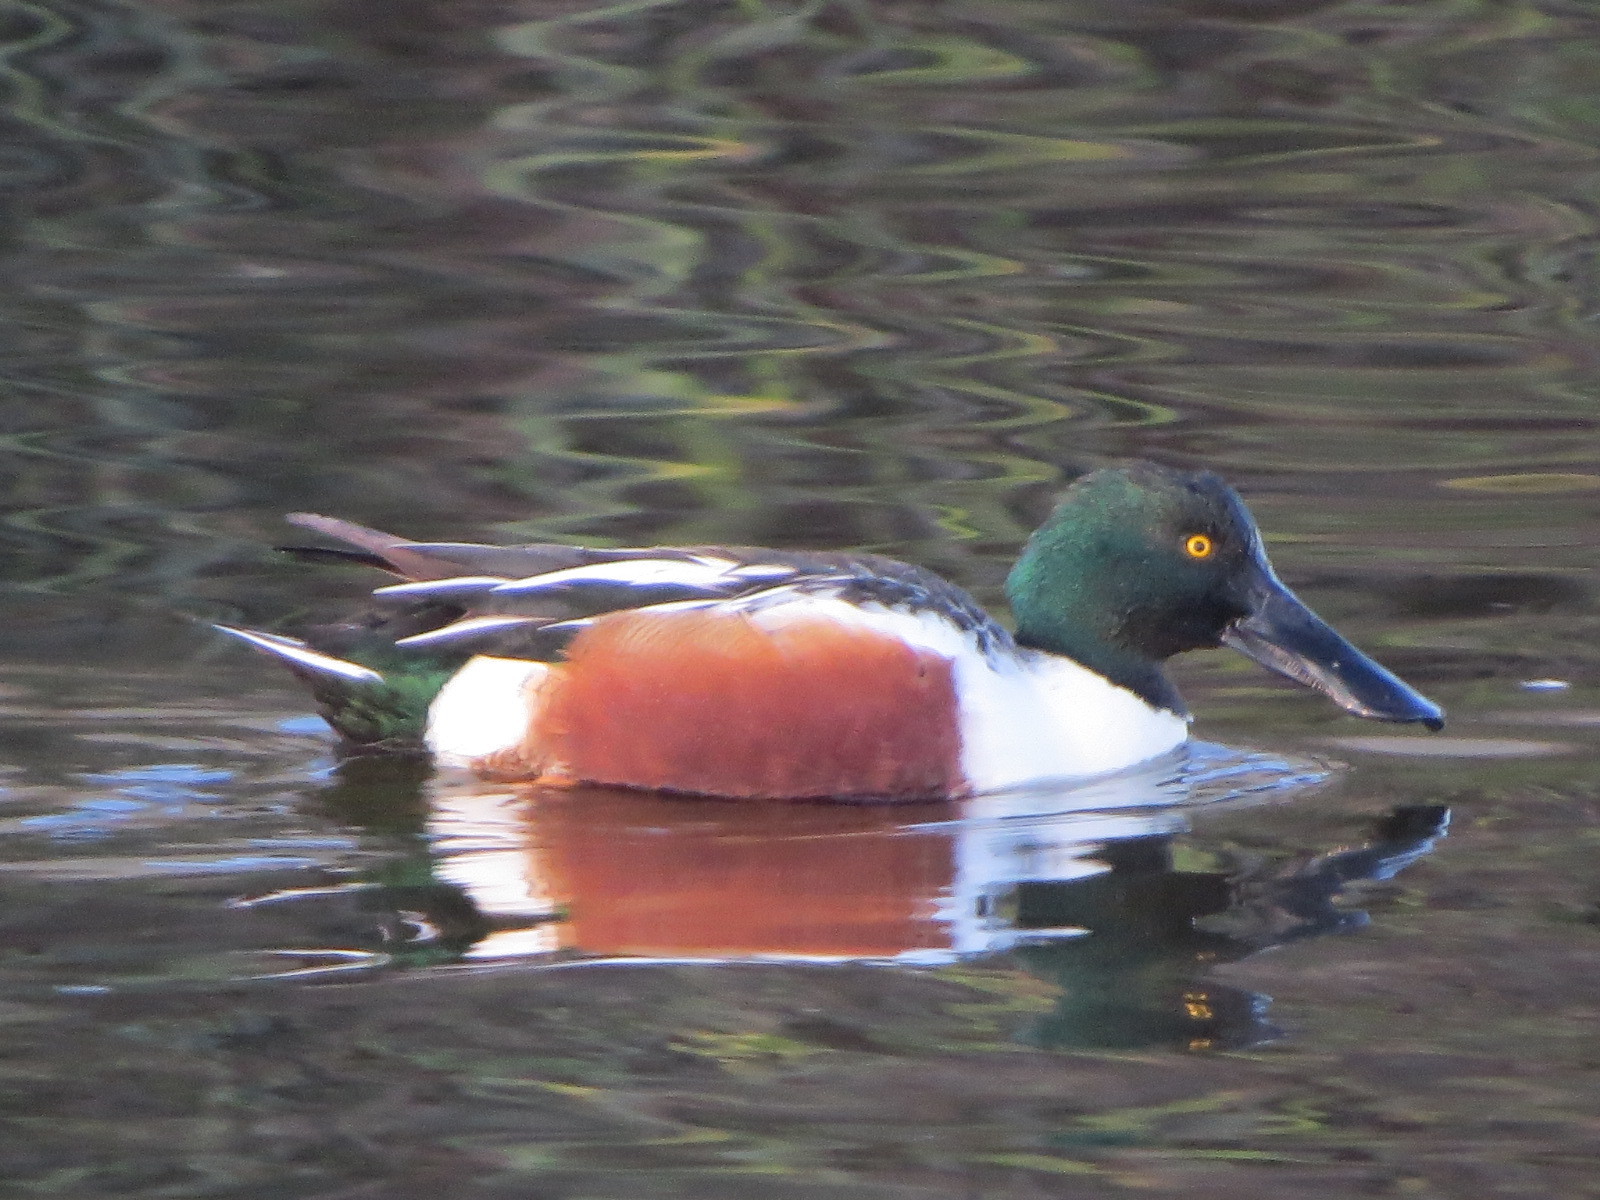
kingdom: Animalia
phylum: Chordata
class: Aves
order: Anseriformes
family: Anatidae
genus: Spatula
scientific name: Spatula clypeata
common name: Northern shoveler
